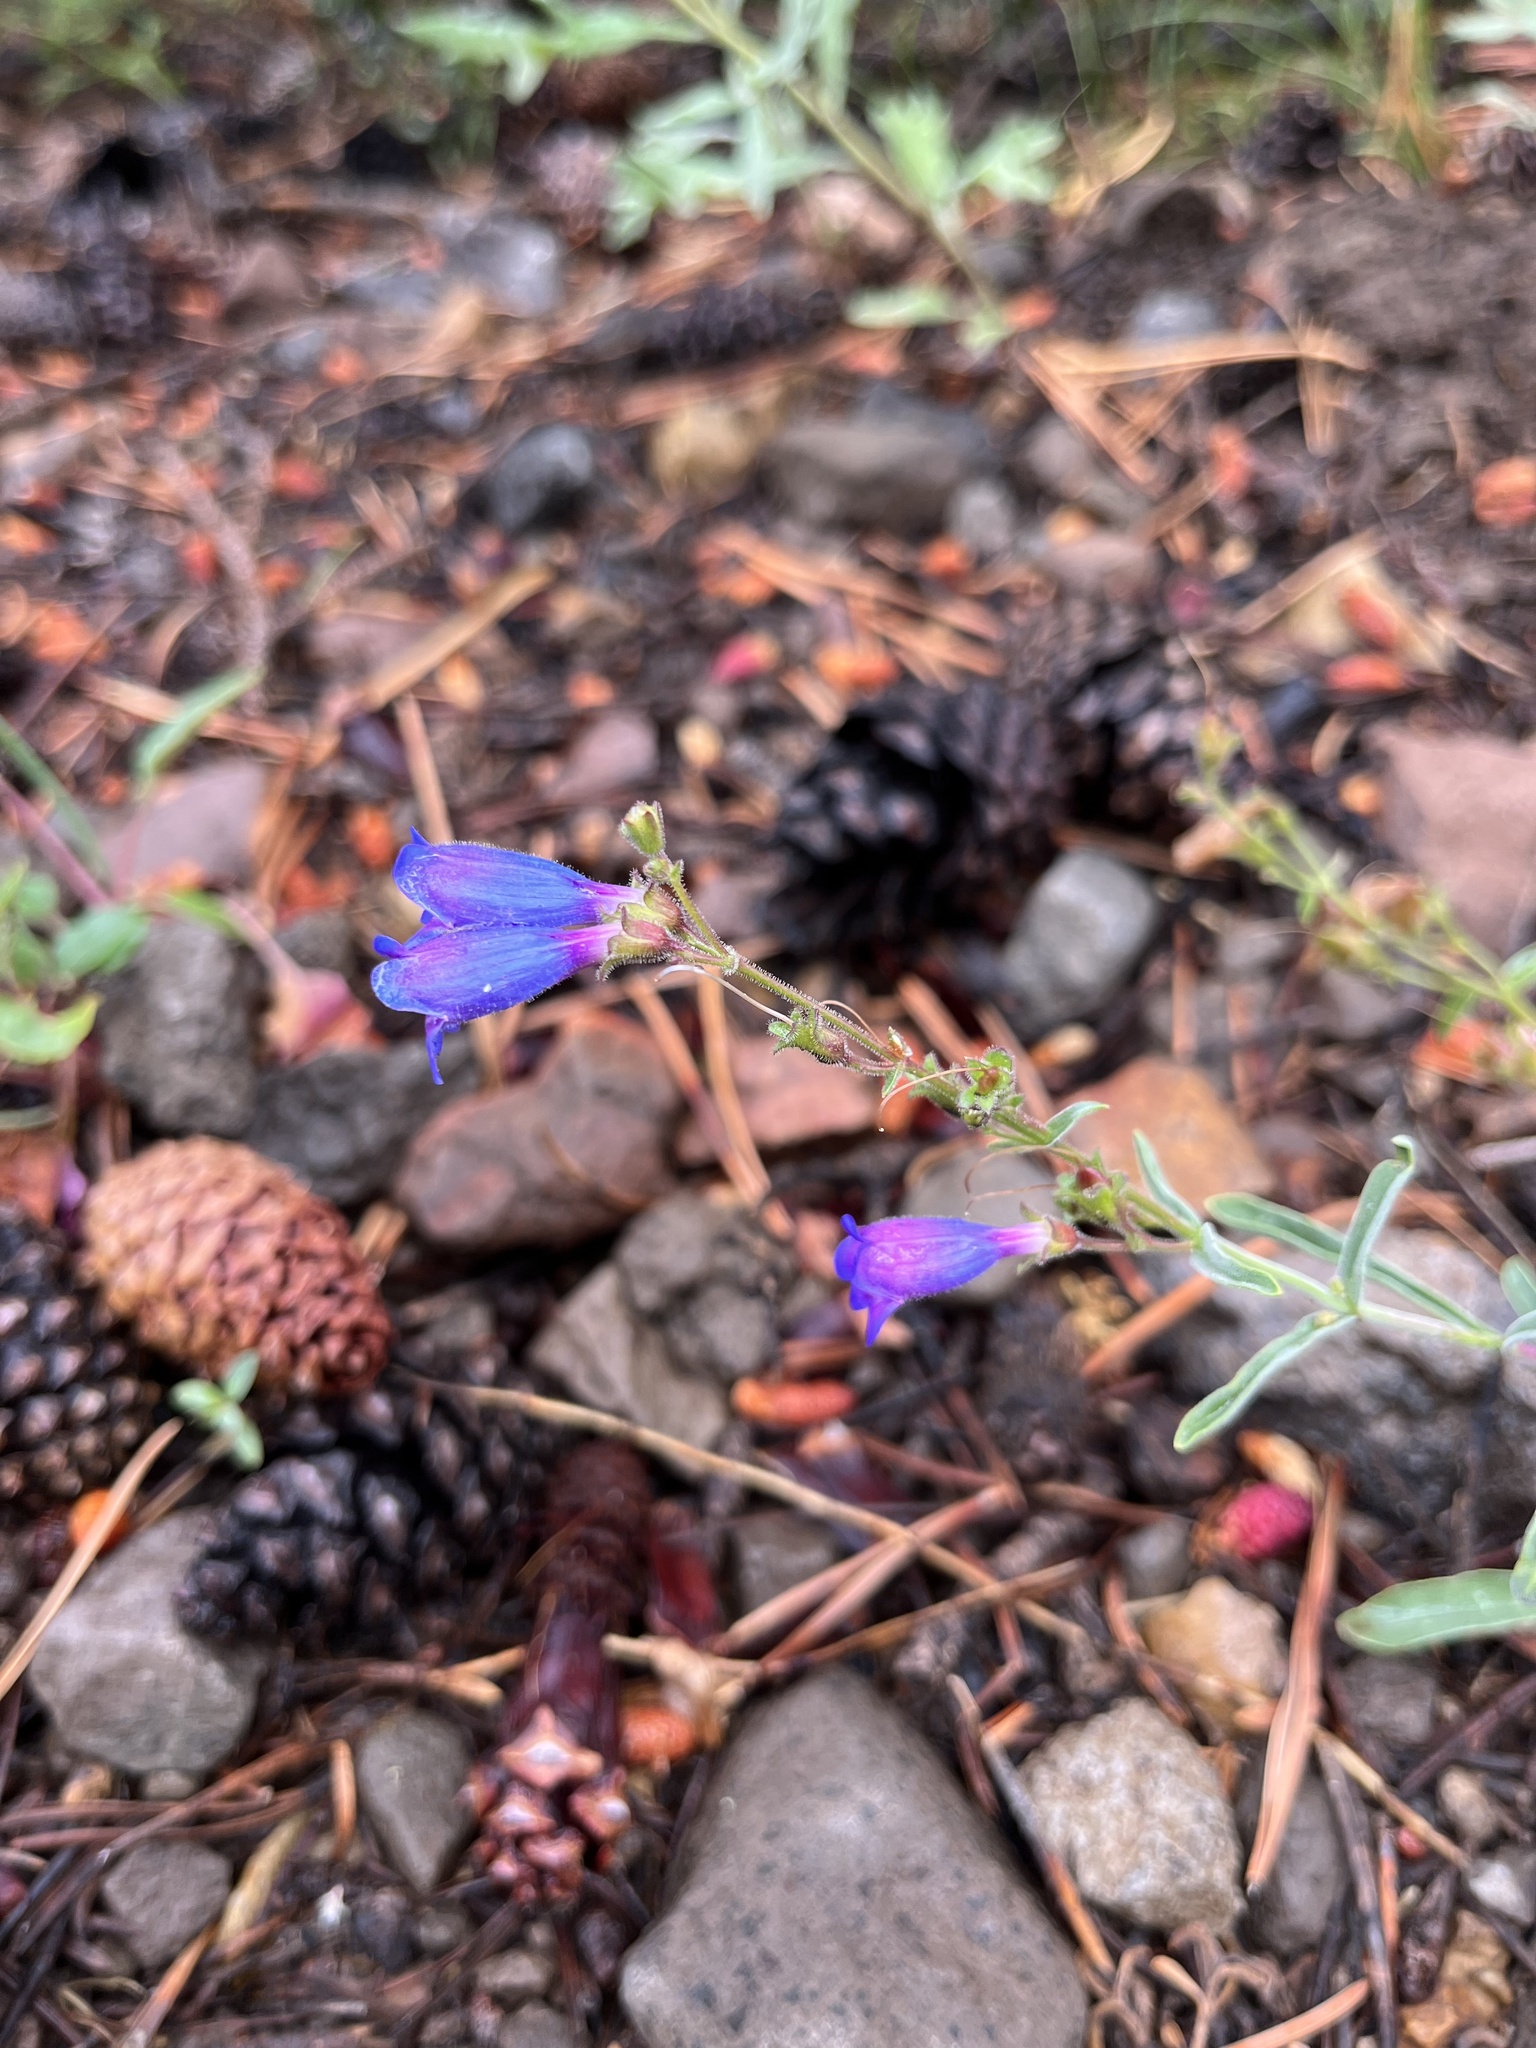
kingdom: Plantae
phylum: Tracheophyta
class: Magnoliopsida
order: Lamiales
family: Plantaginaceae
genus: Penstemon
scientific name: Penstemon laetus
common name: Gay penstemon
